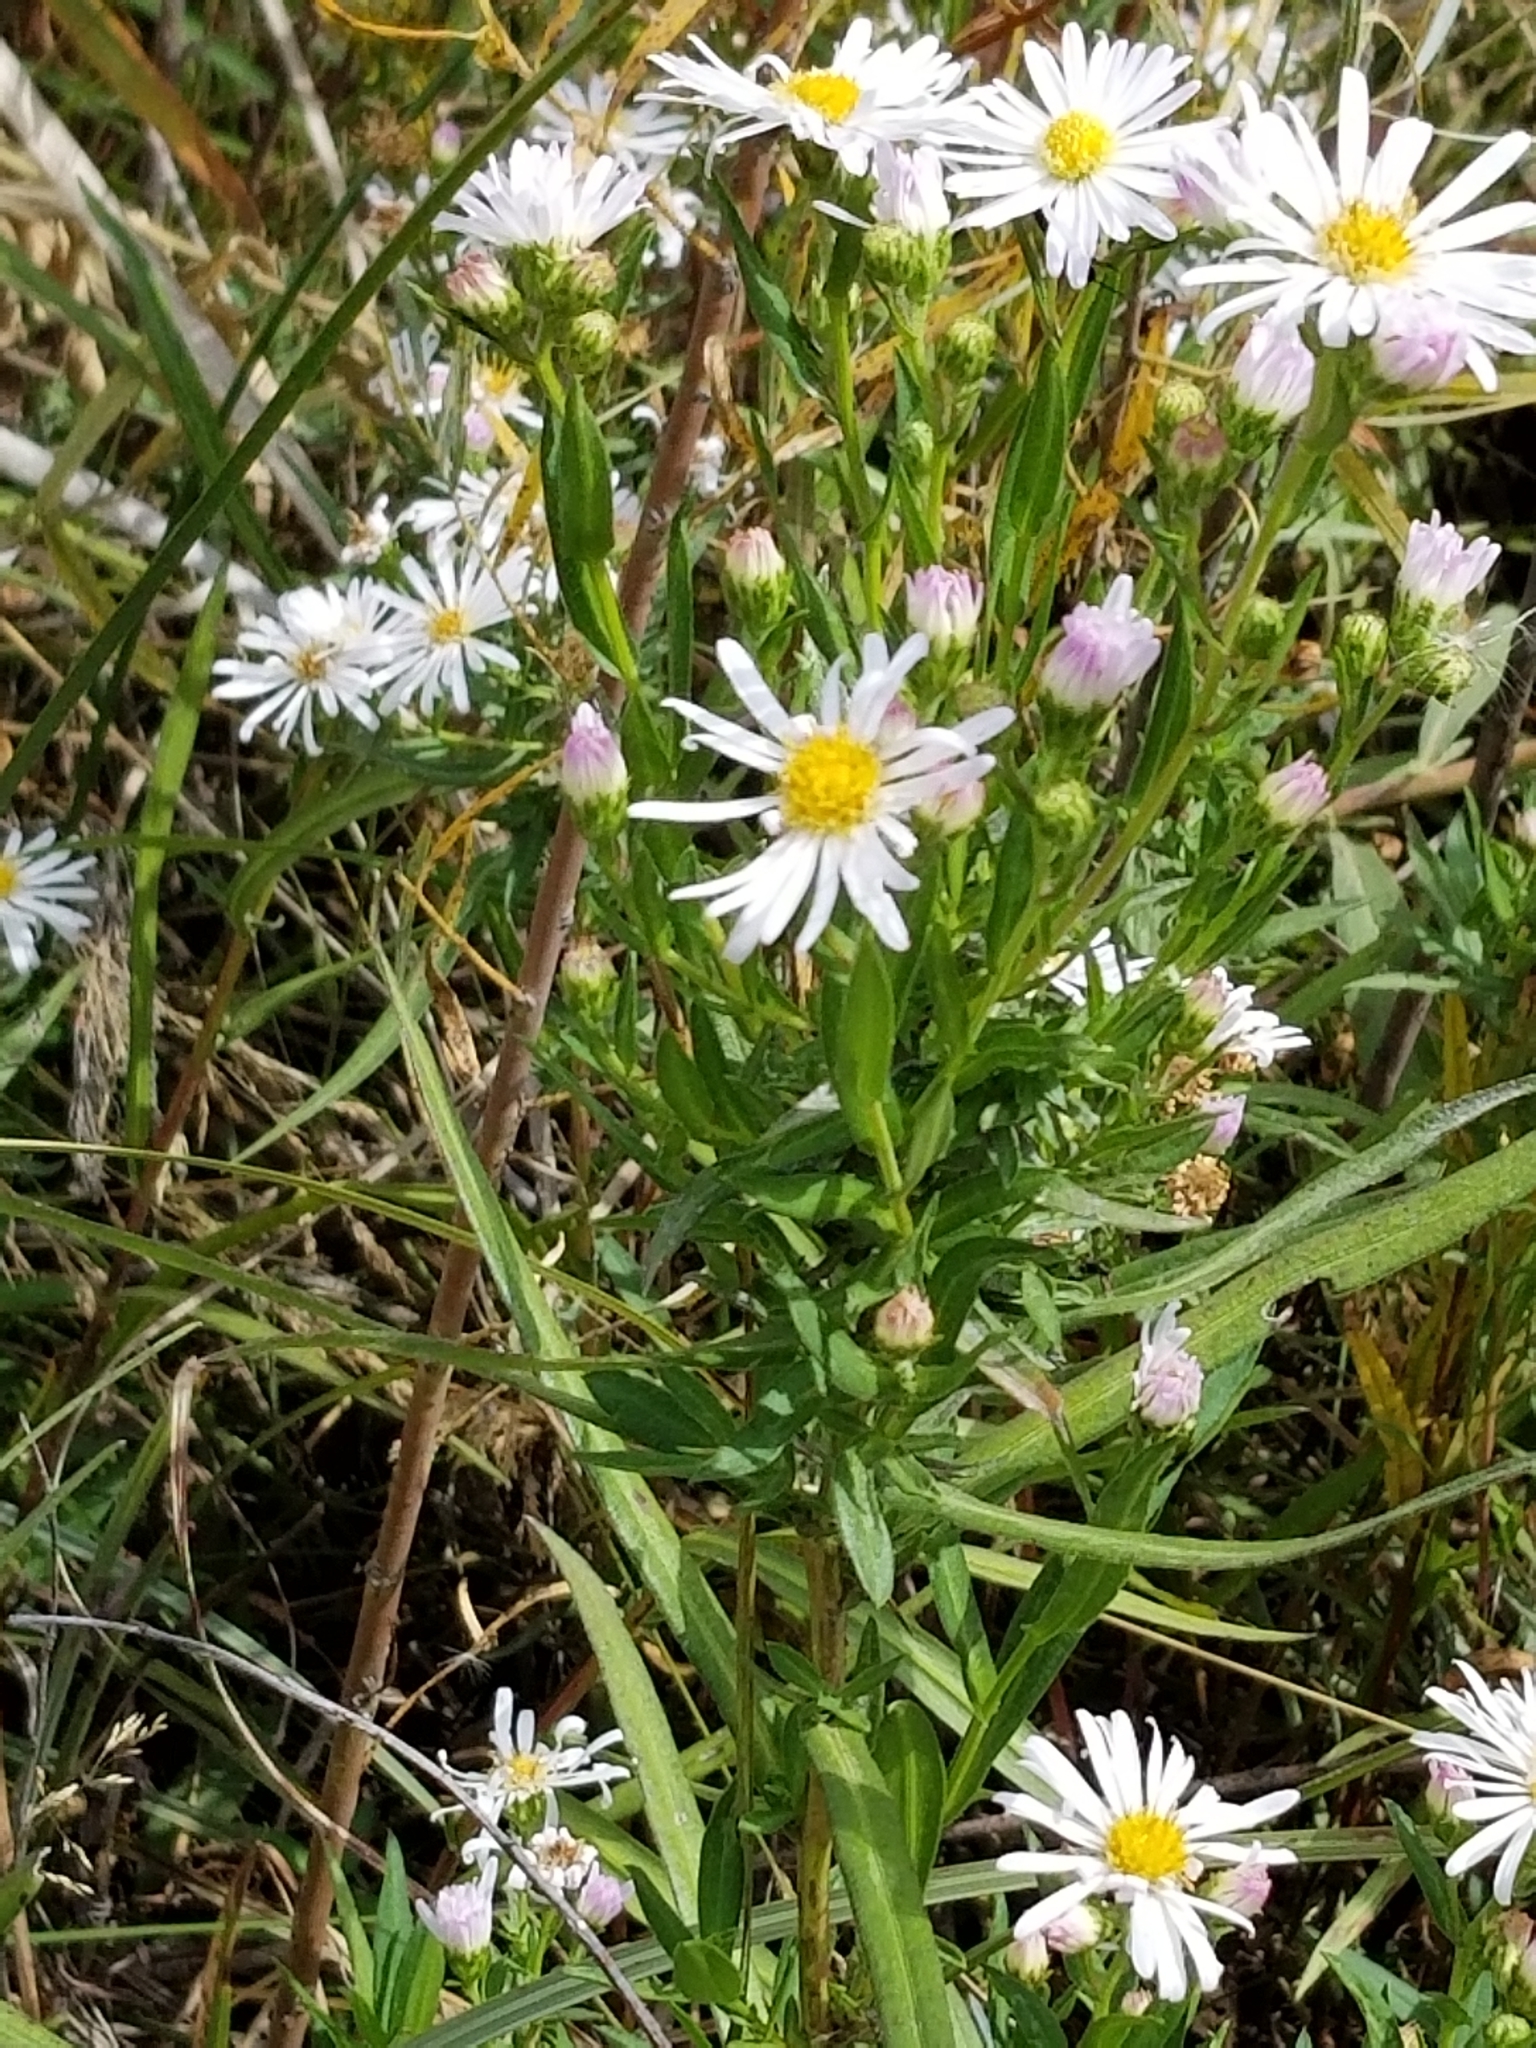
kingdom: Plantae
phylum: Tracheophyta
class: Magnoliopsida
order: Asterales
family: Asteraceae
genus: Symphyotrichum
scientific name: Symphyotrichum ericoides
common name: Heath aster
